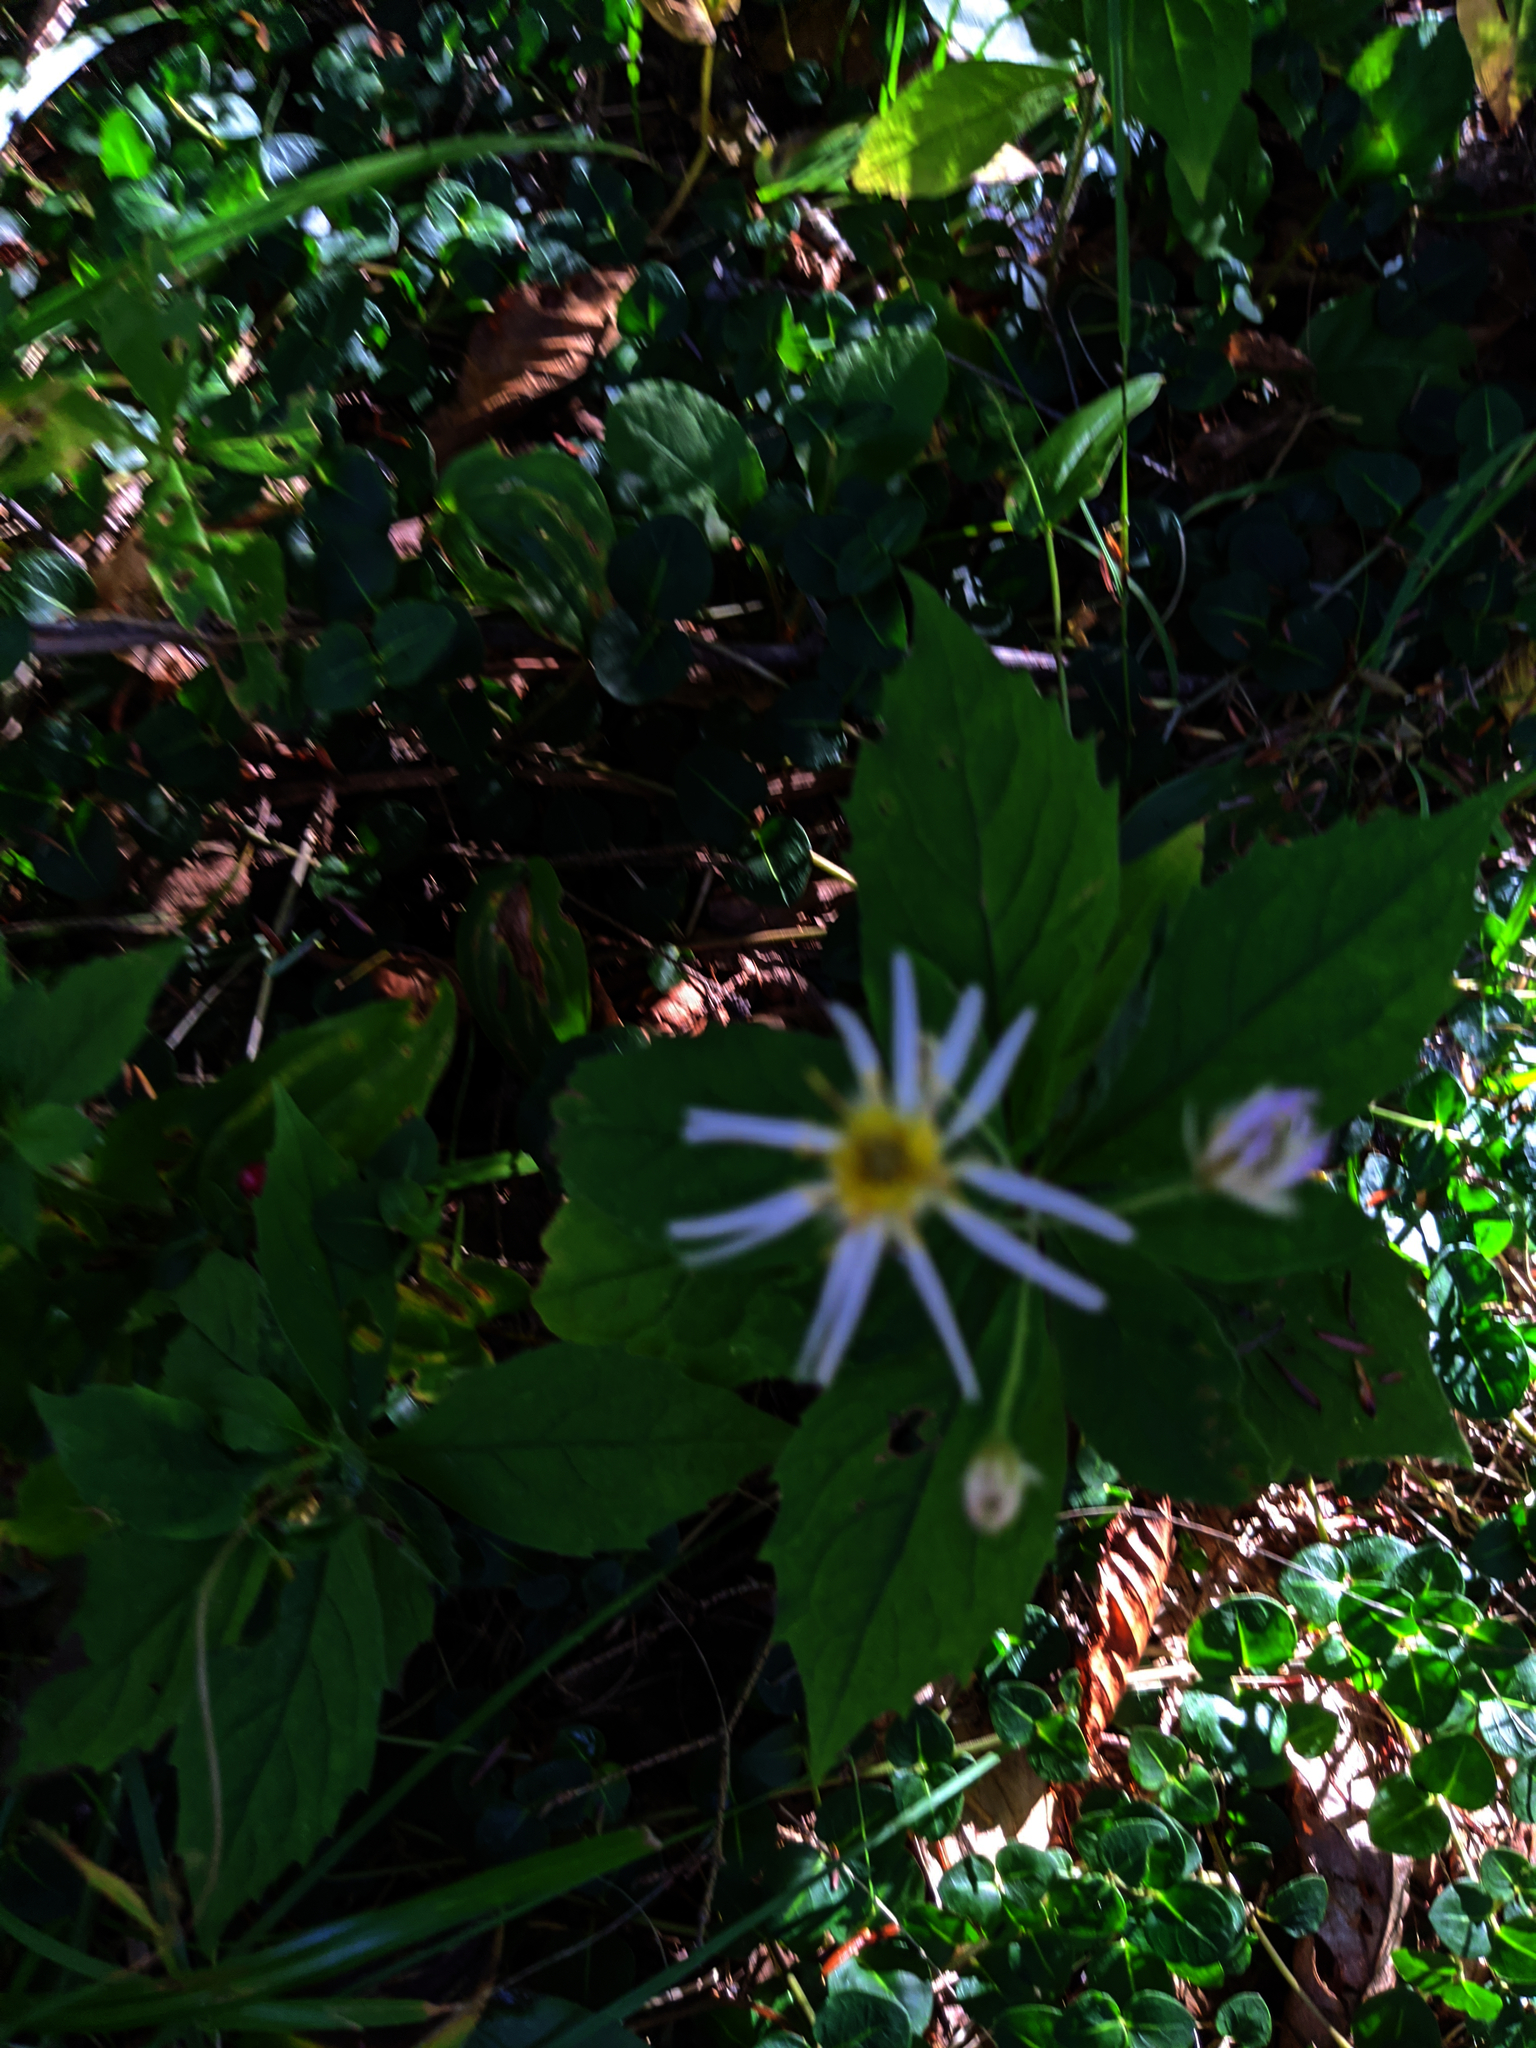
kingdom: Plantae
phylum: Tracheophyta
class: Magnoliopsida
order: Asterales
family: Asteraceae
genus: Oclemena
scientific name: Oclemena acuminata
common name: Mountain aster
